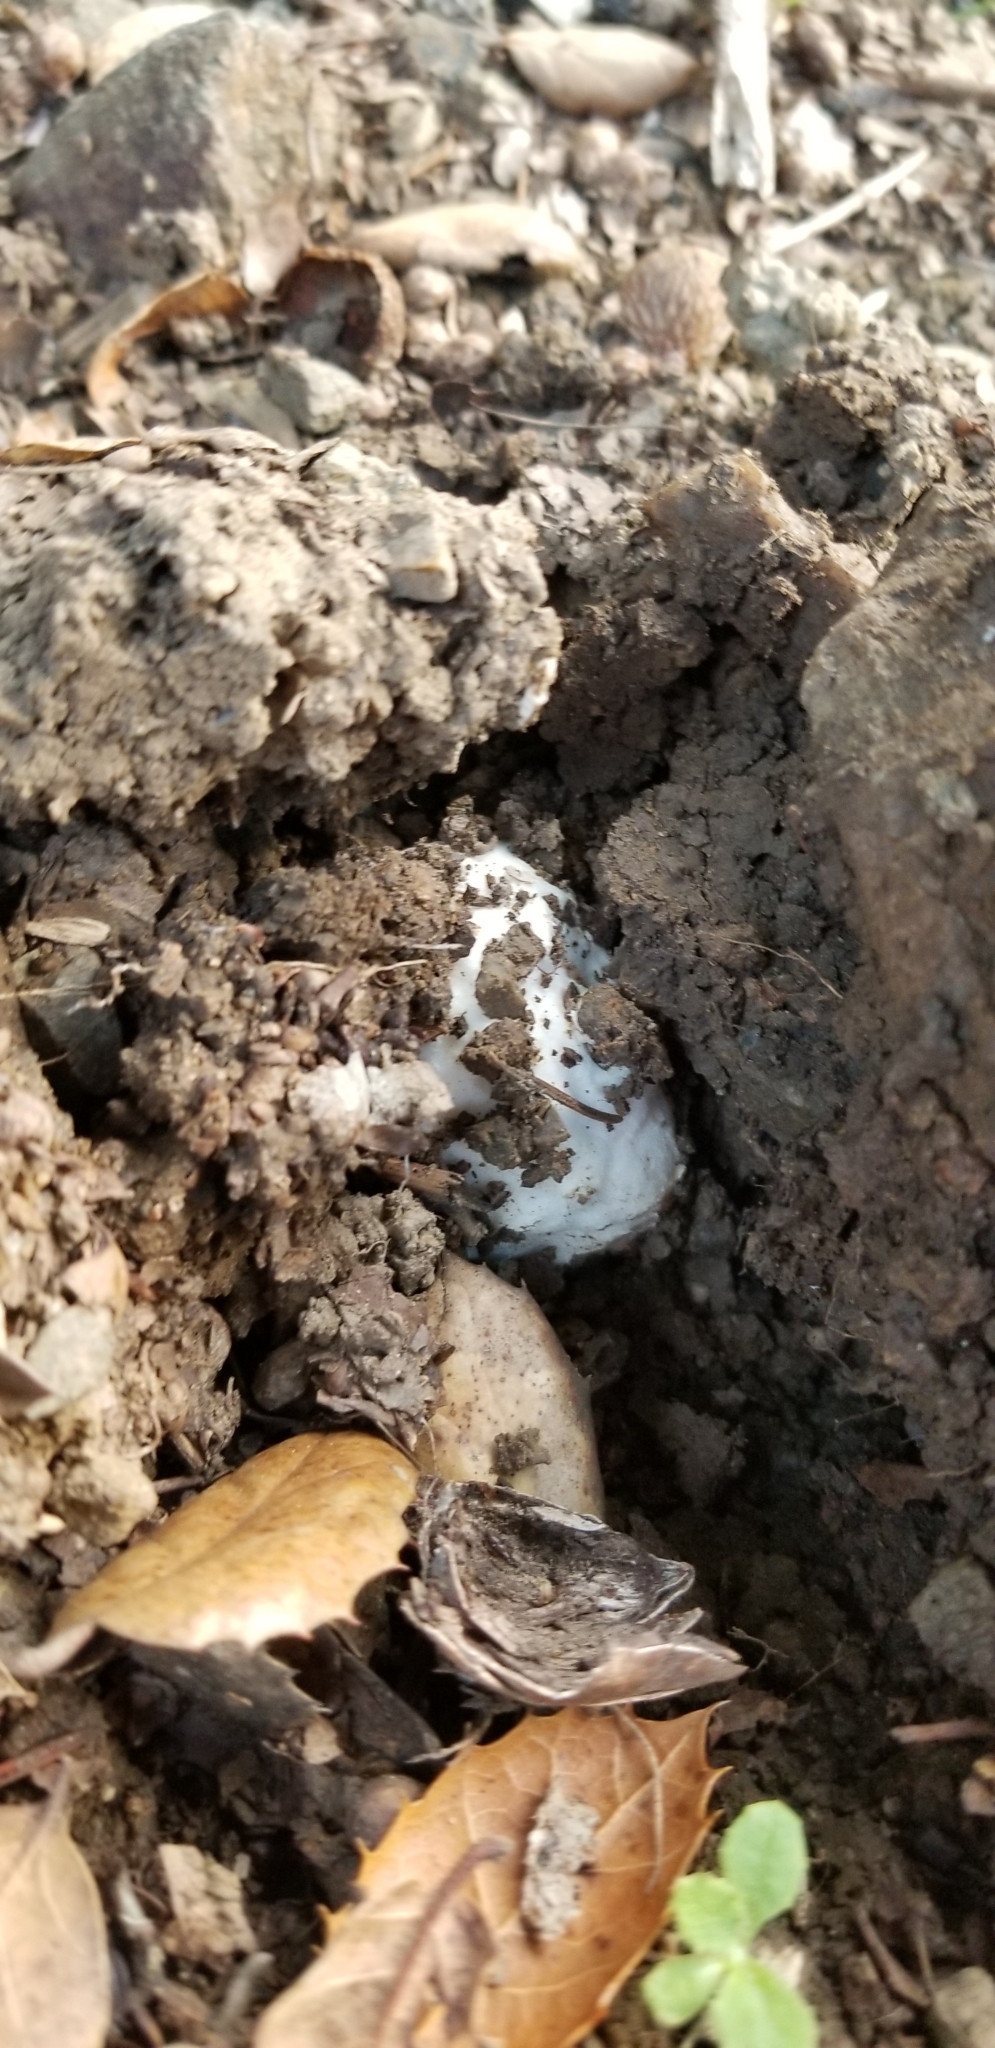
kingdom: Fungi
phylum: Basidiomycota
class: Agaricomycetes
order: Agaricales
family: Amanitaceae
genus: Amanita
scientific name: Amanita velosa
